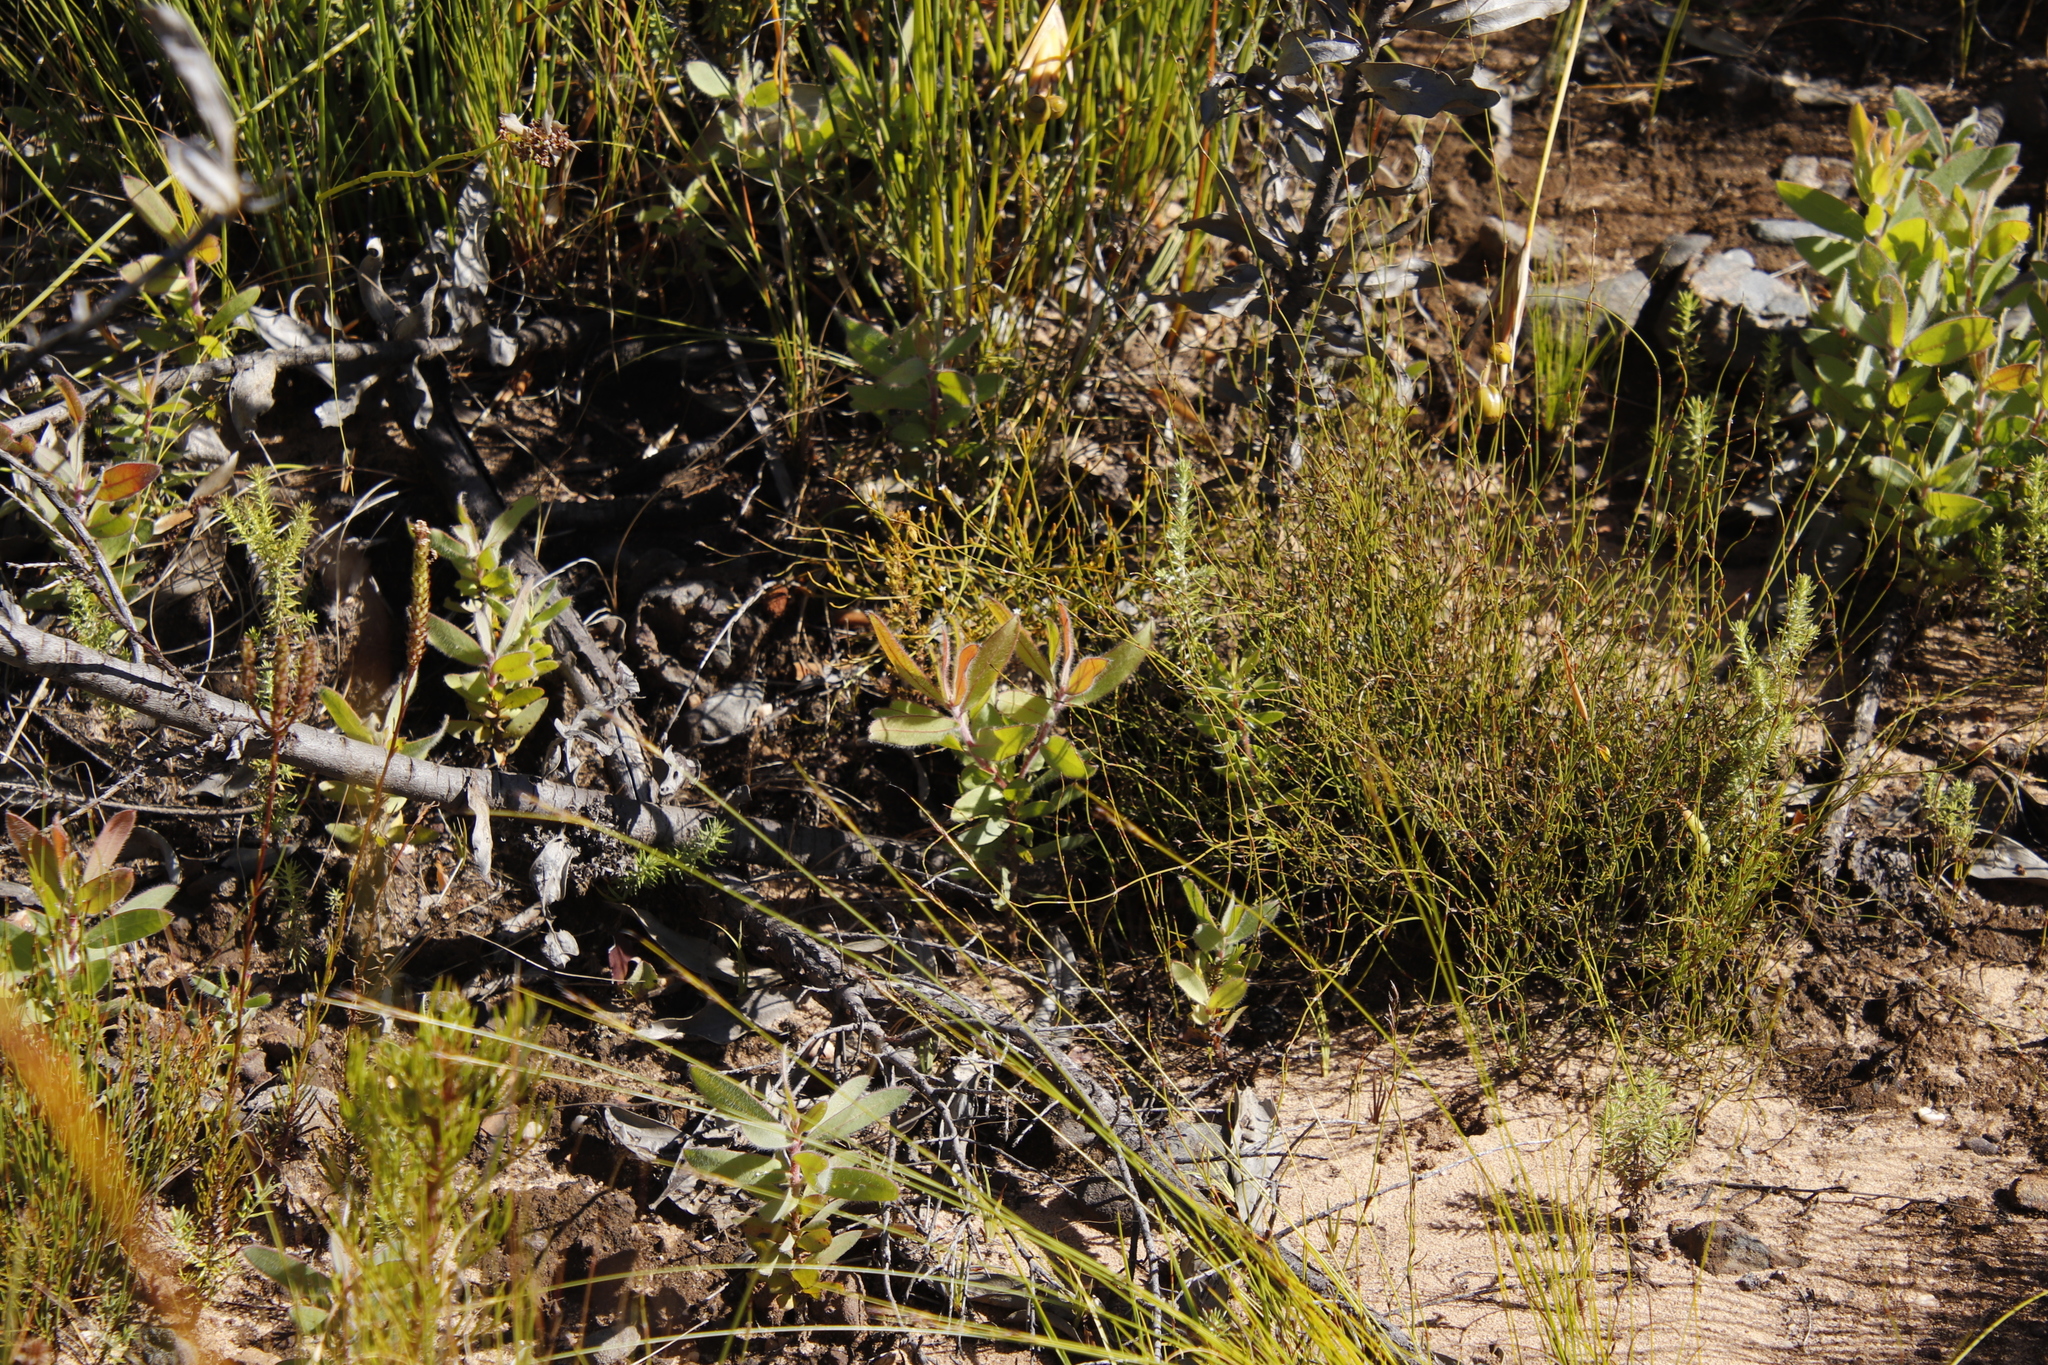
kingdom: Plantae
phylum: Tracheophyta
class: Magnoliopsida
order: Proteales
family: Proteaceae
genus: Protea
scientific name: Protea laurifolia
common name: Grey-leaf sugarbsh
